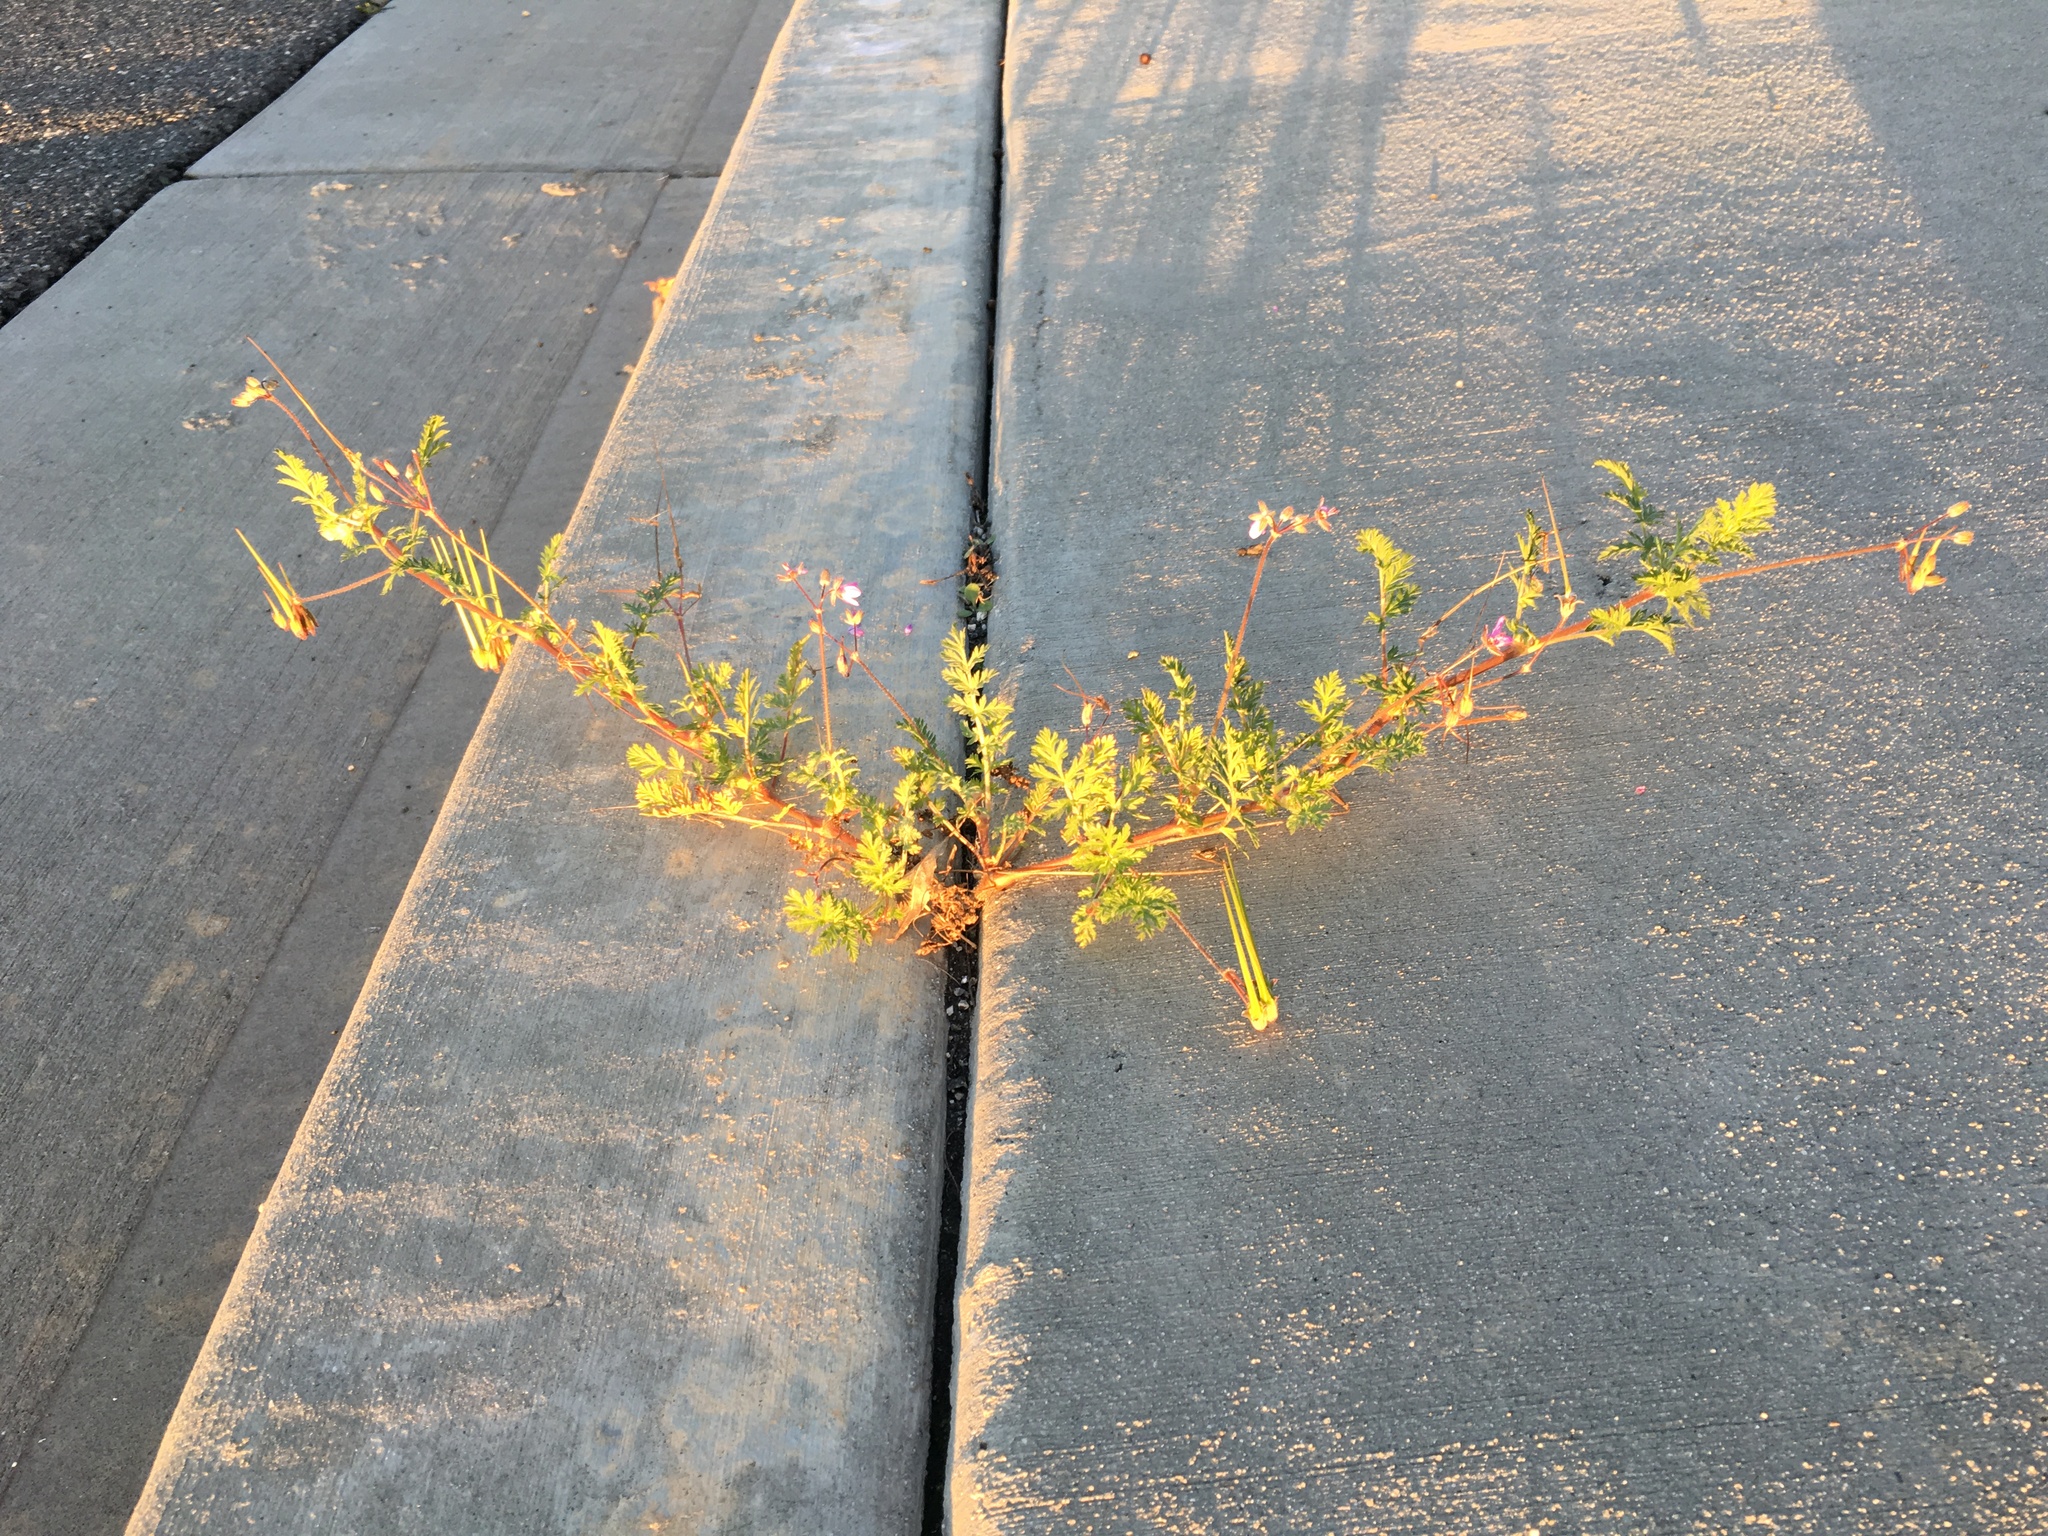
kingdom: Plantae
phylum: Tracheophyta
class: Magnoliopsida
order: Geraniales
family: Geraniaceae
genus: Erodium
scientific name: Erodium cicutarium
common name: Common stork's-bill
